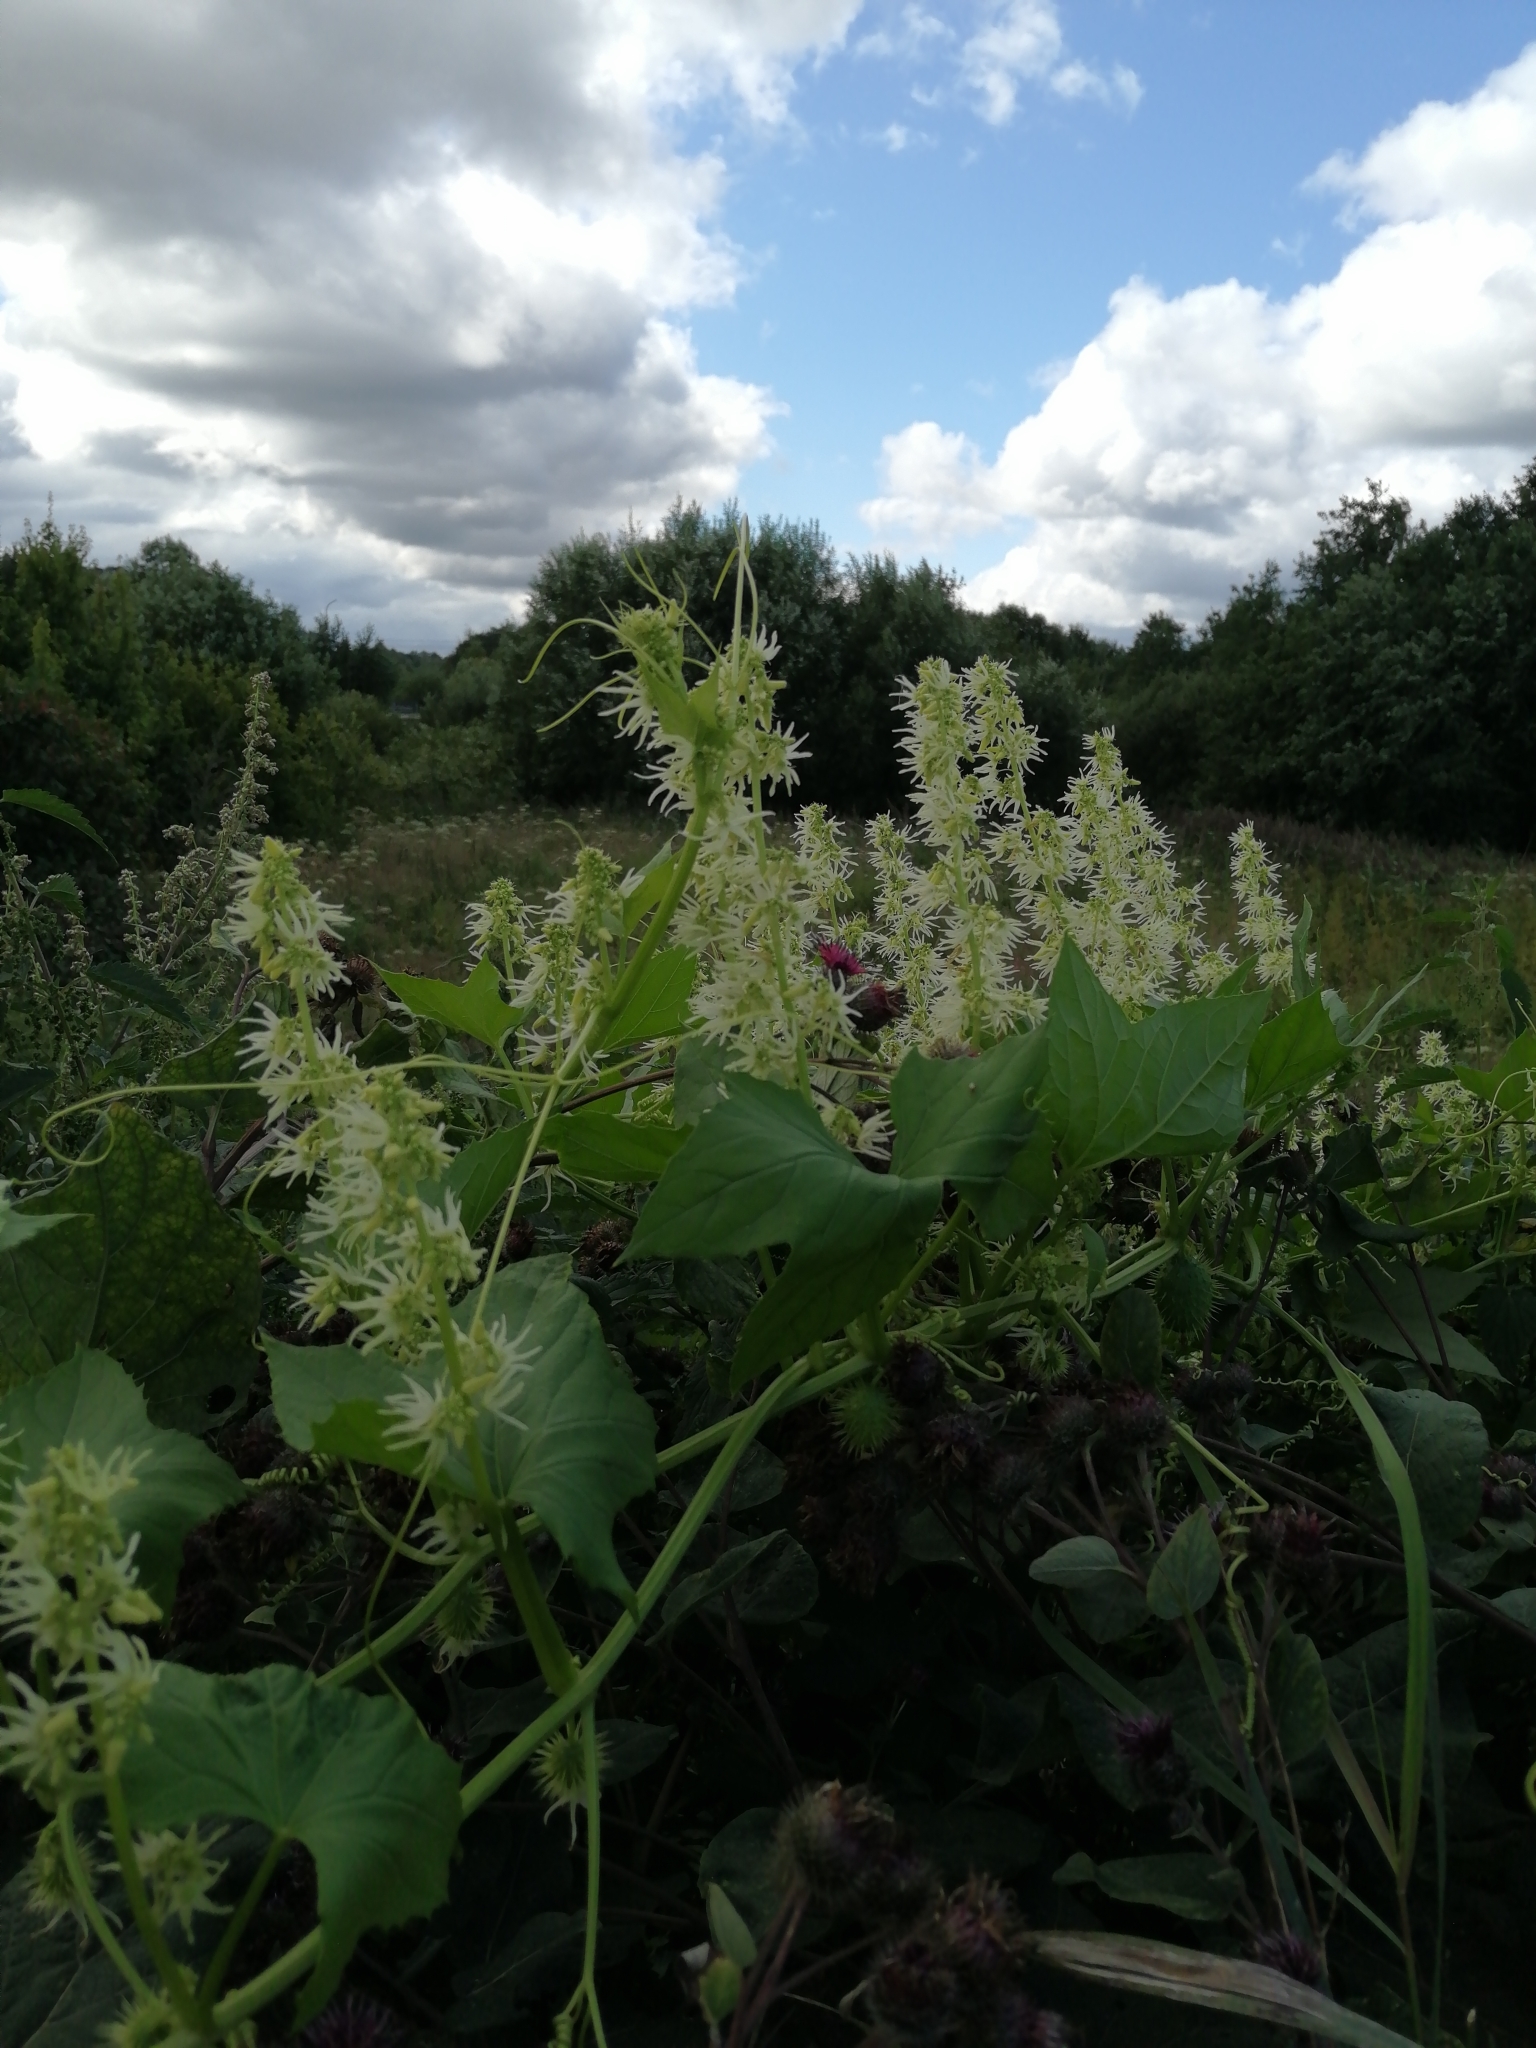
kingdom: Plantae
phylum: Tracheophyta
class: Magnoliopsida
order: Cucurbitales
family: Cucurbitaceae
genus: Echinocystis
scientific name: Echinocystis lobata
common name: Wild cucumber
